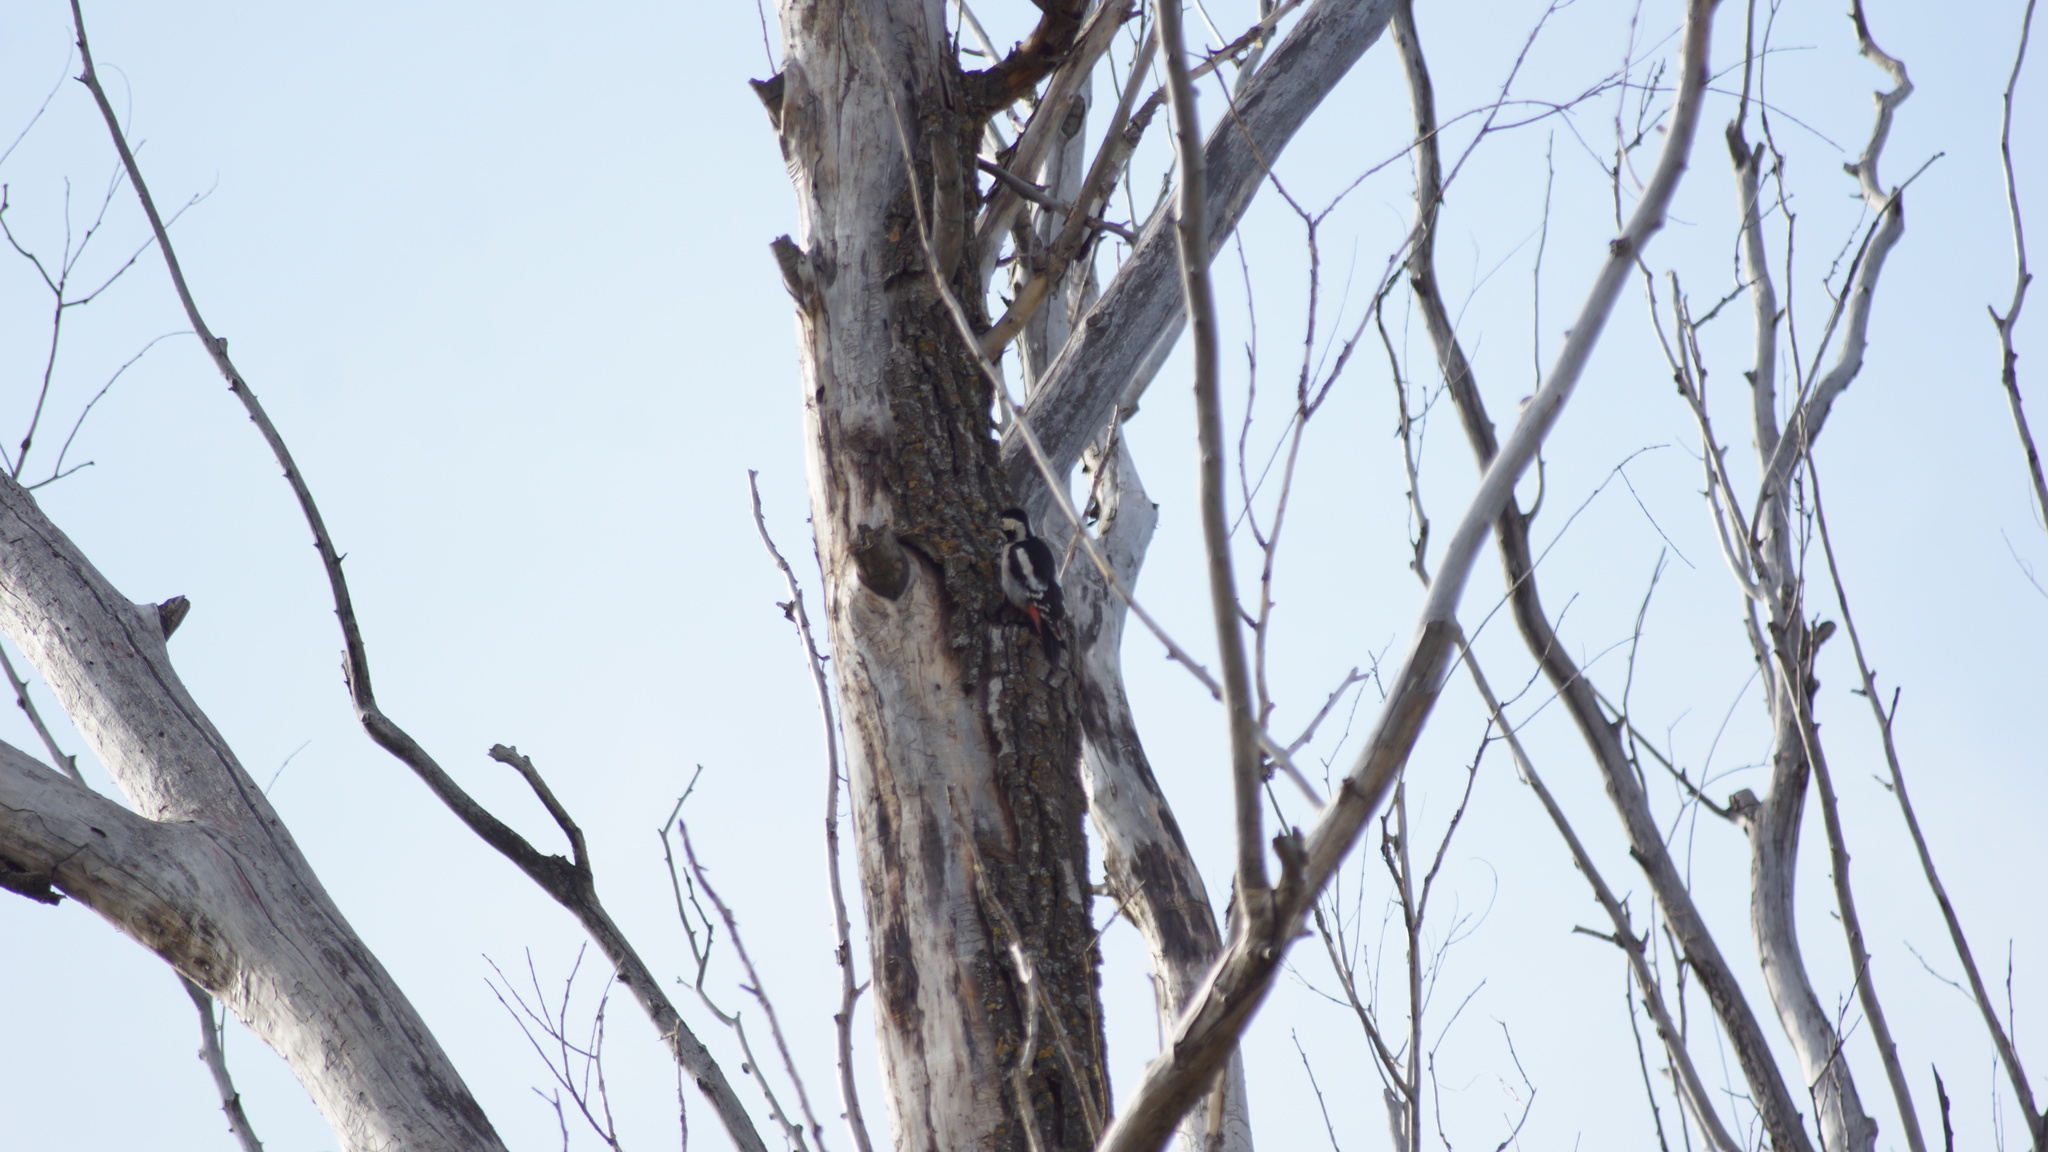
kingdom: Animalia
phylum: Chordata
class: Aves
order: Piciformes
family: Picidae
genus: Dendrocopos
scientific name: Dendrocopos syriacus
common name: Syrian woodpecker
